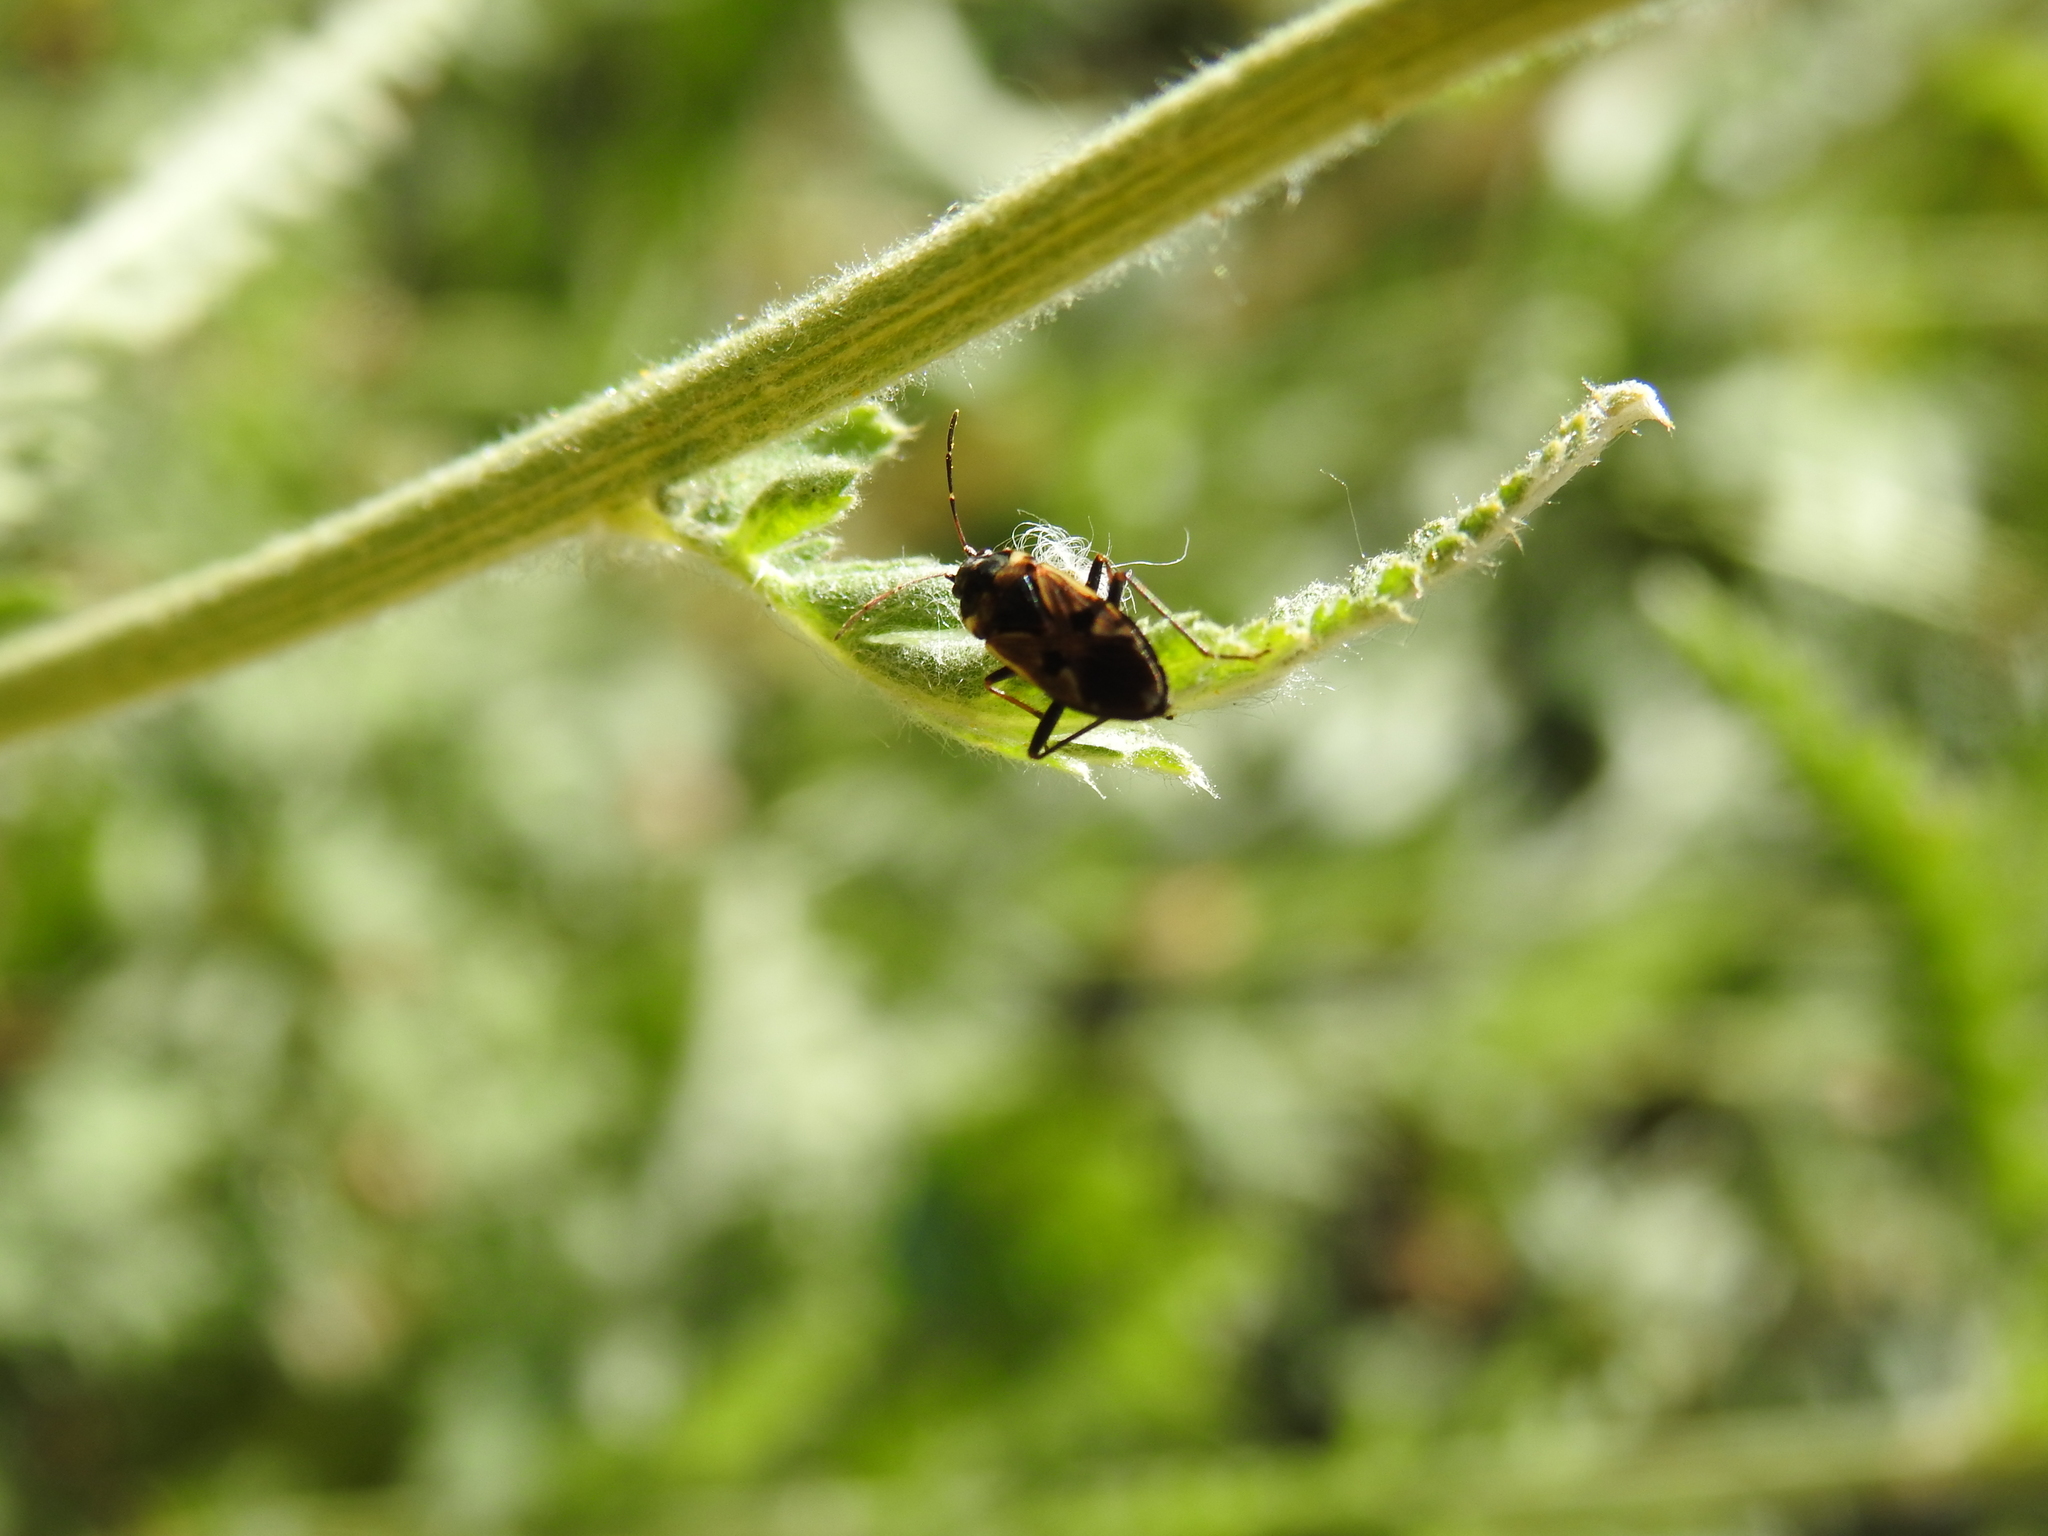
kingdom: Animalia
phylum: Arthropoda
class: Insecta
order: Hemiptera
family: Rhyparochromidae
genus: Rhyparochromus
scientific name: Rhyparochromus vulgaris
